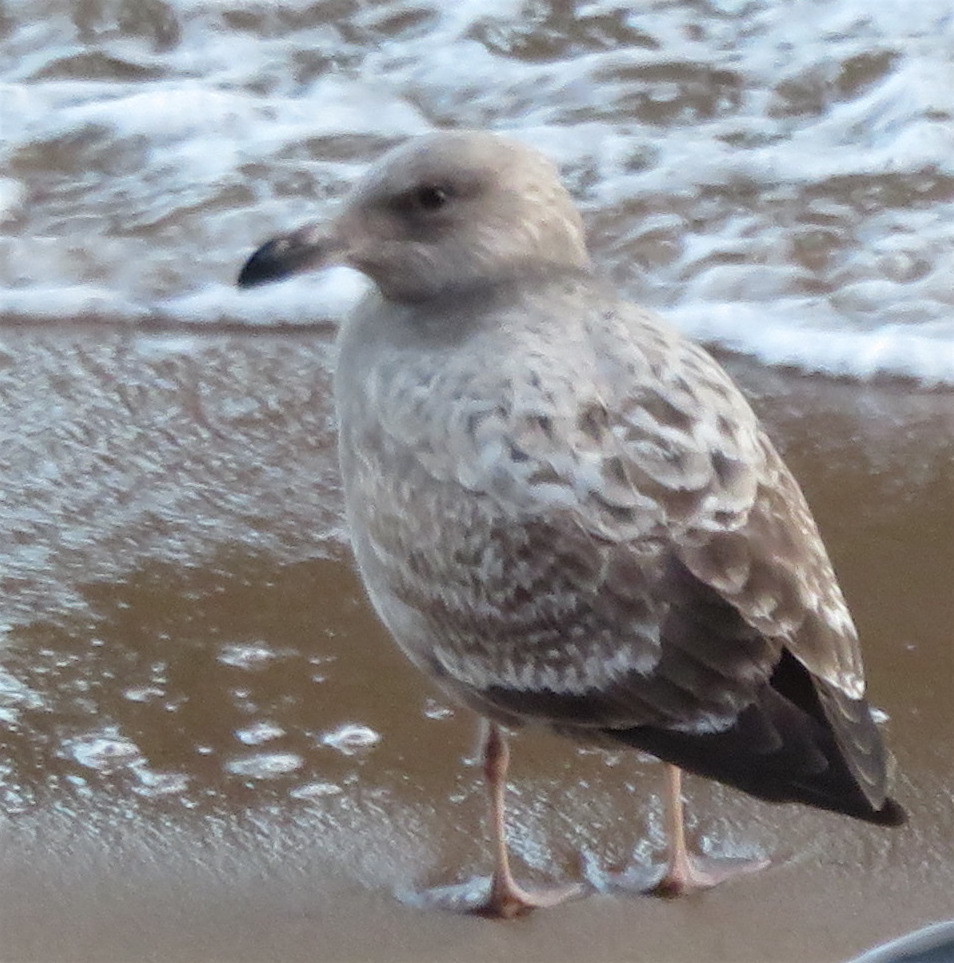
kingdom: Animalia
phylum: Chordata
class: Aves
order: Charadriiformes
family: Laridae
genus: Larus
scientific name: Larus argentatus
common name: Herring gull
